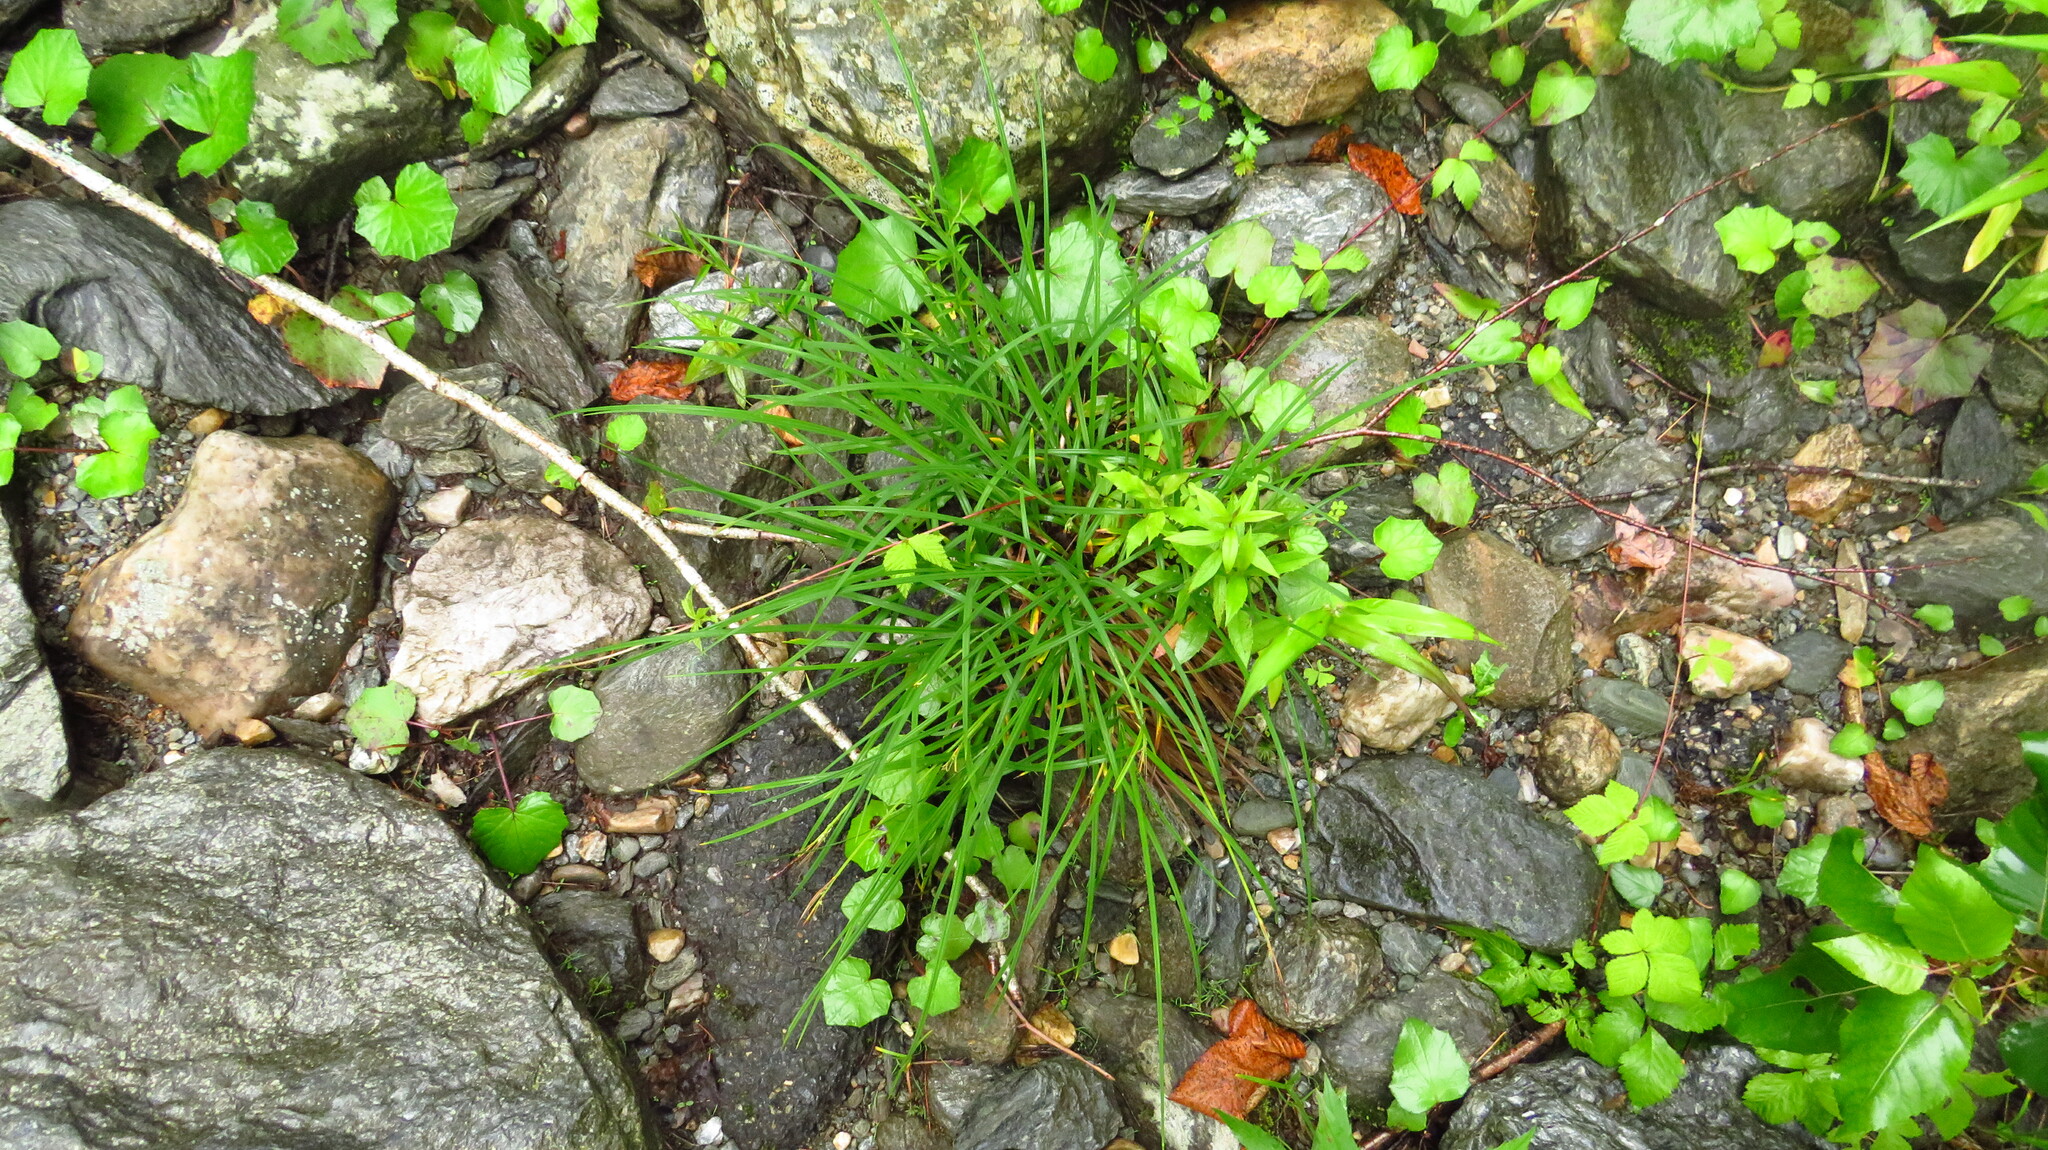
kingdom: Plantae
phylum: Tracheophyta
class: Liliopsida
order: Poales
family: Cyperaceae
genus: Carex
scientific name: Carex torta
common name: Twisted sedge
